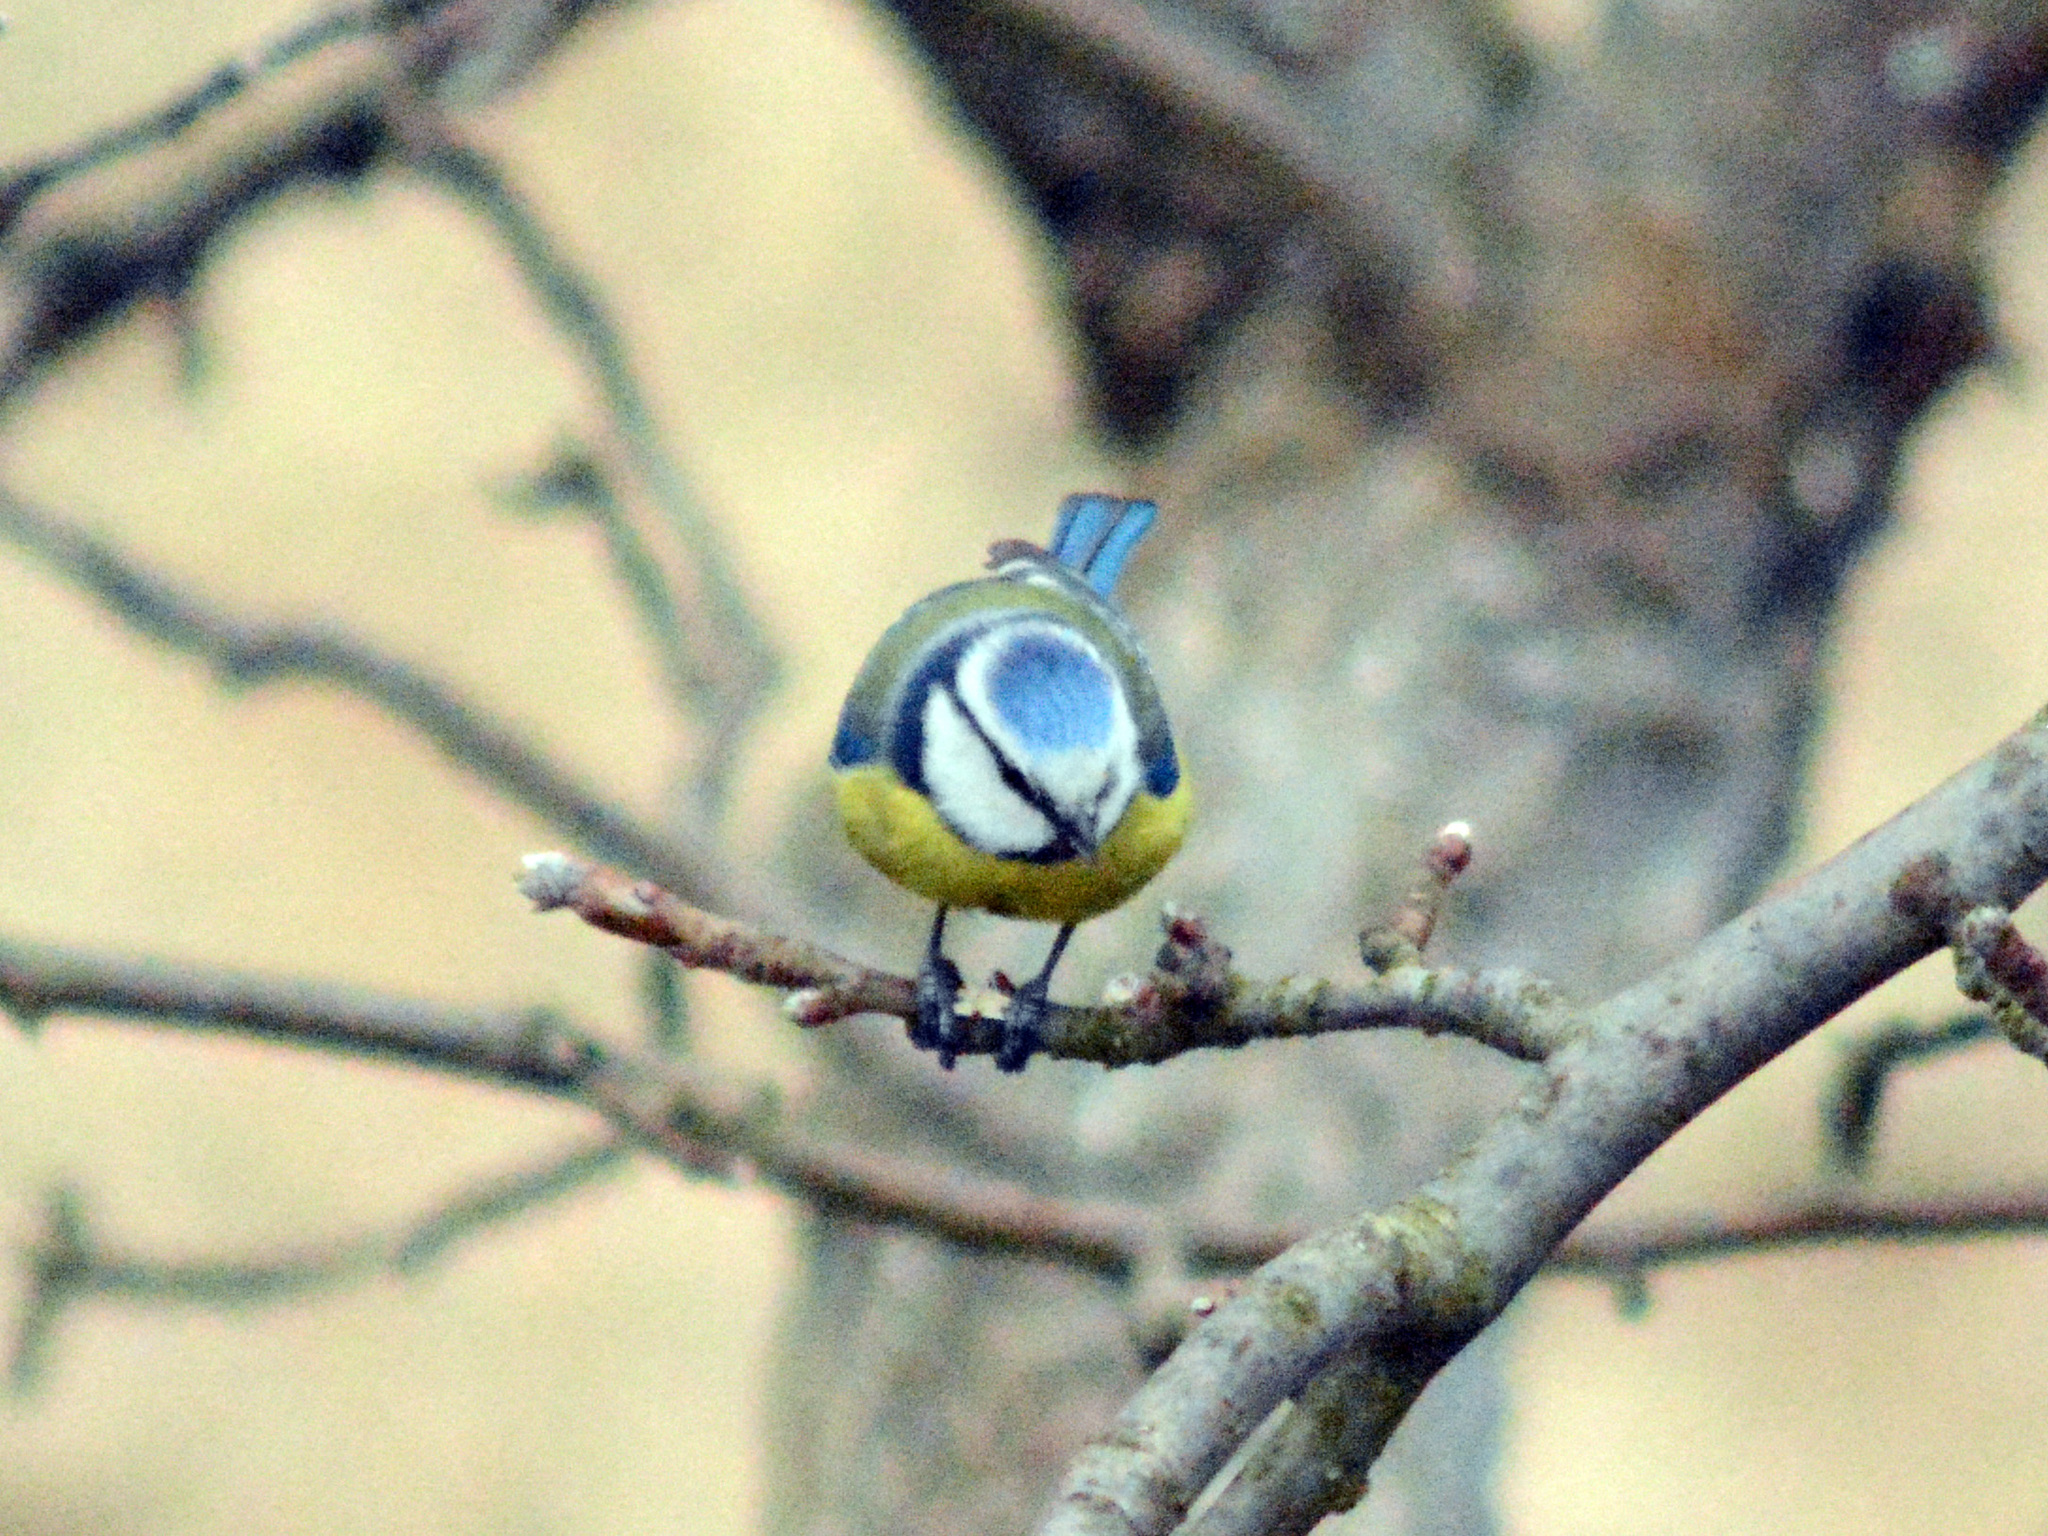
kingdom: Animalia
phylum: Chordata
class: Aves
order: Passeriformes
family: Paridae
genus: Cyanistes
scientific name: Cyanistes caeruleus
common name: Eurasian blue tit
